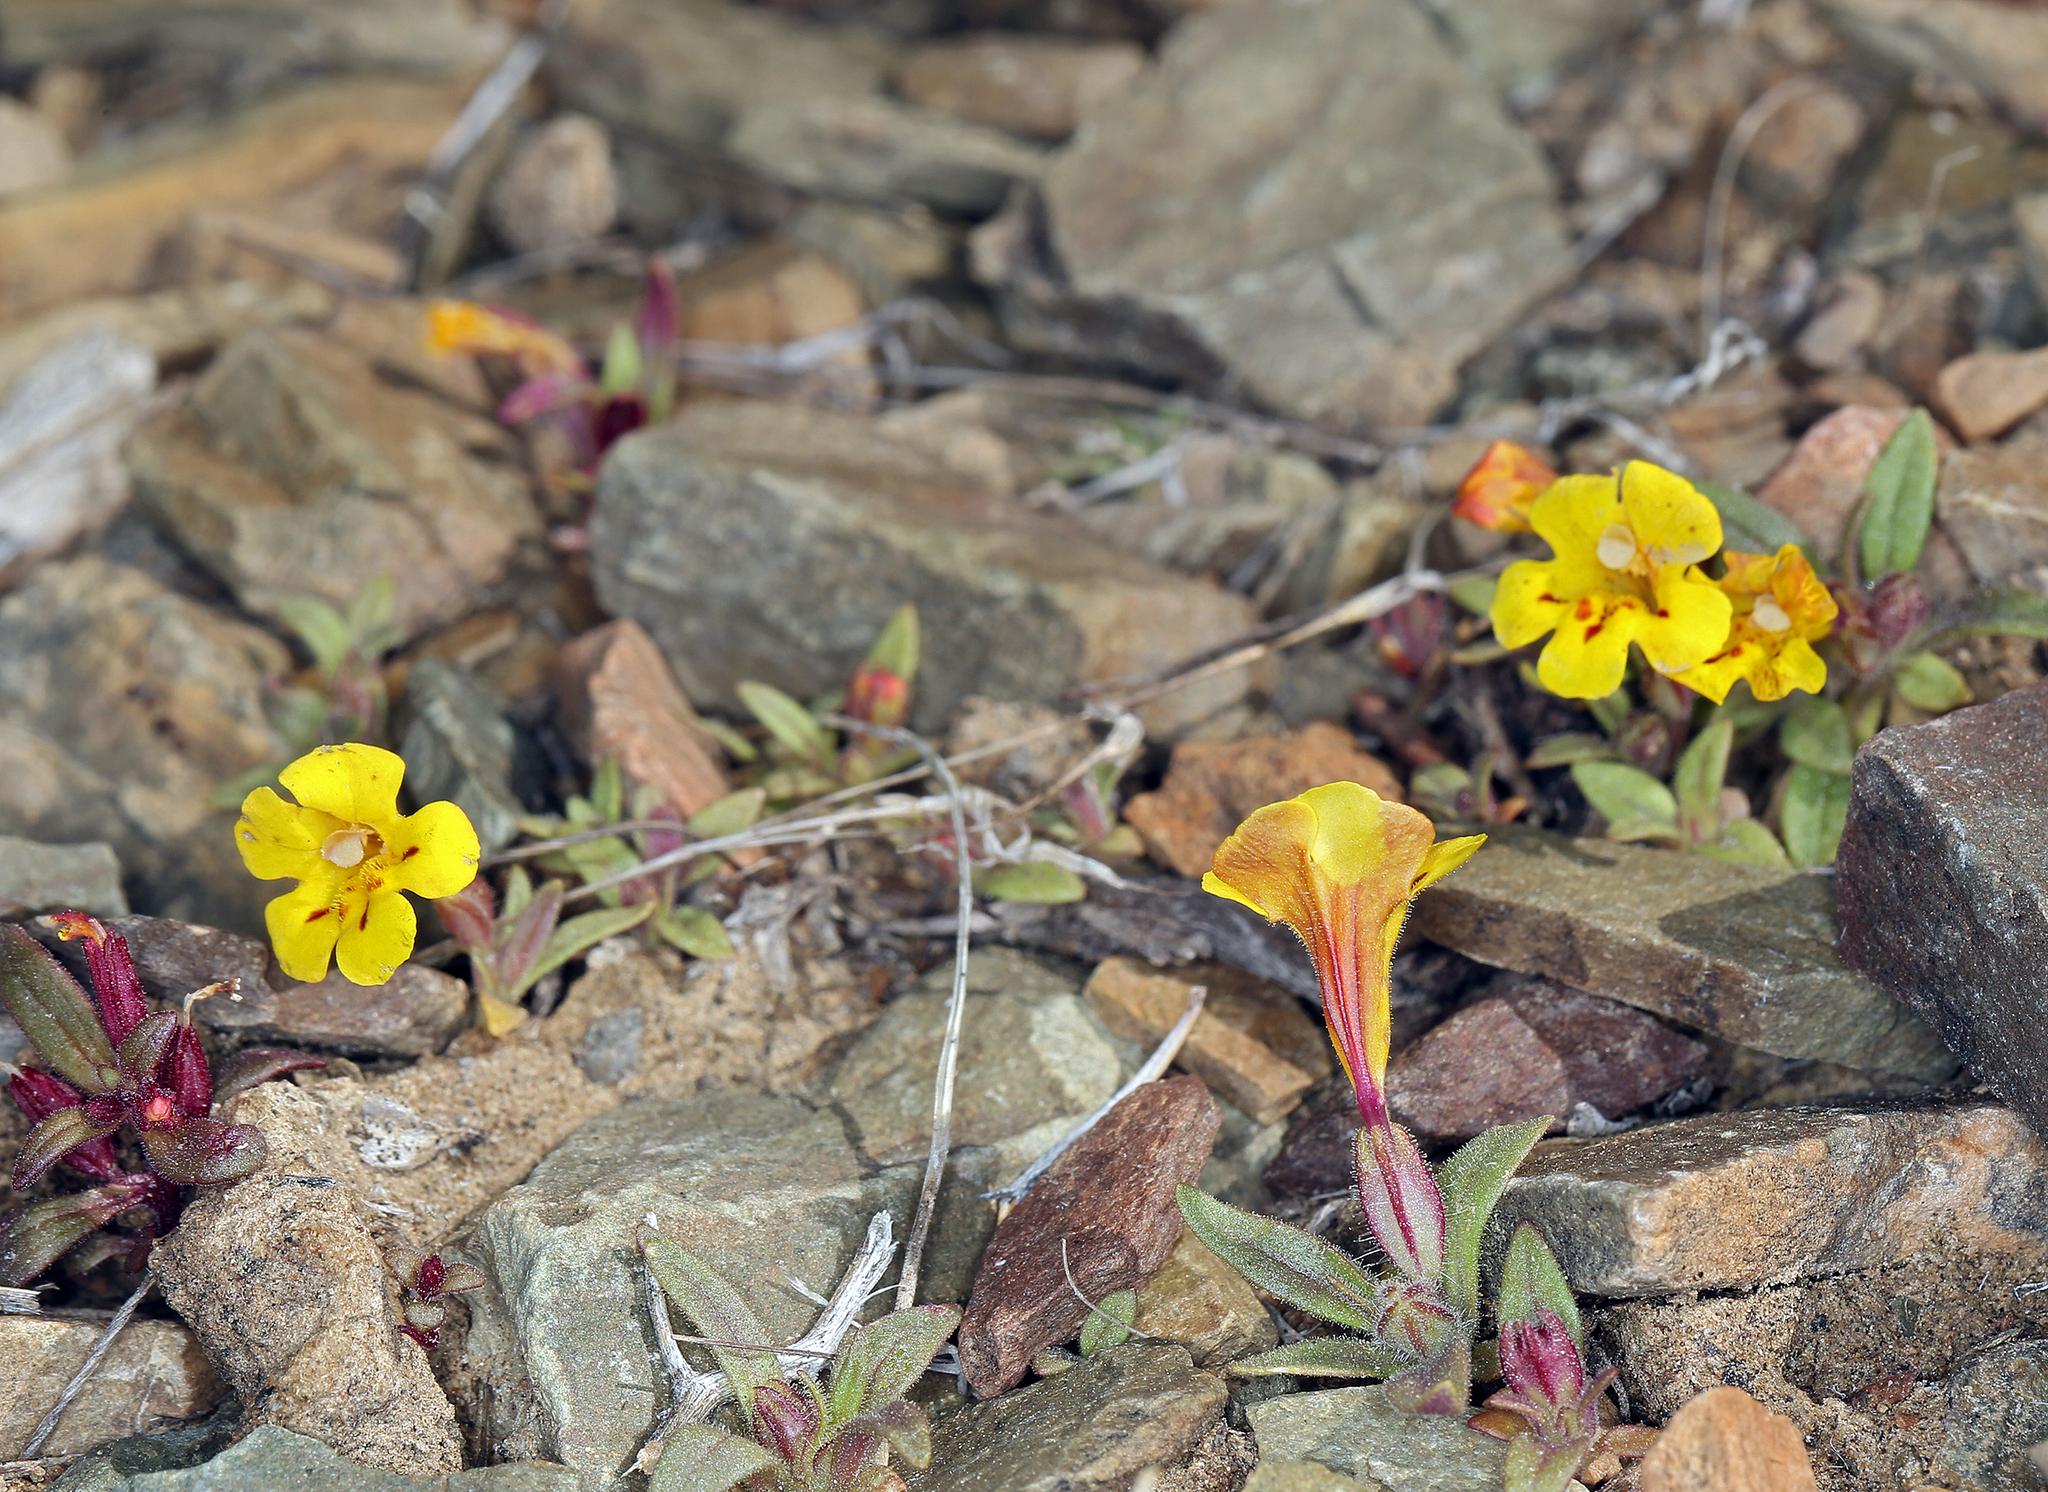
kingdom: Plantae
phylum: Tracheophyta
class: Magnoliopsida
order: Lamiales
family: Phrymaceae
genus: Diplacus
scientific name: Diplacus mephiticus
